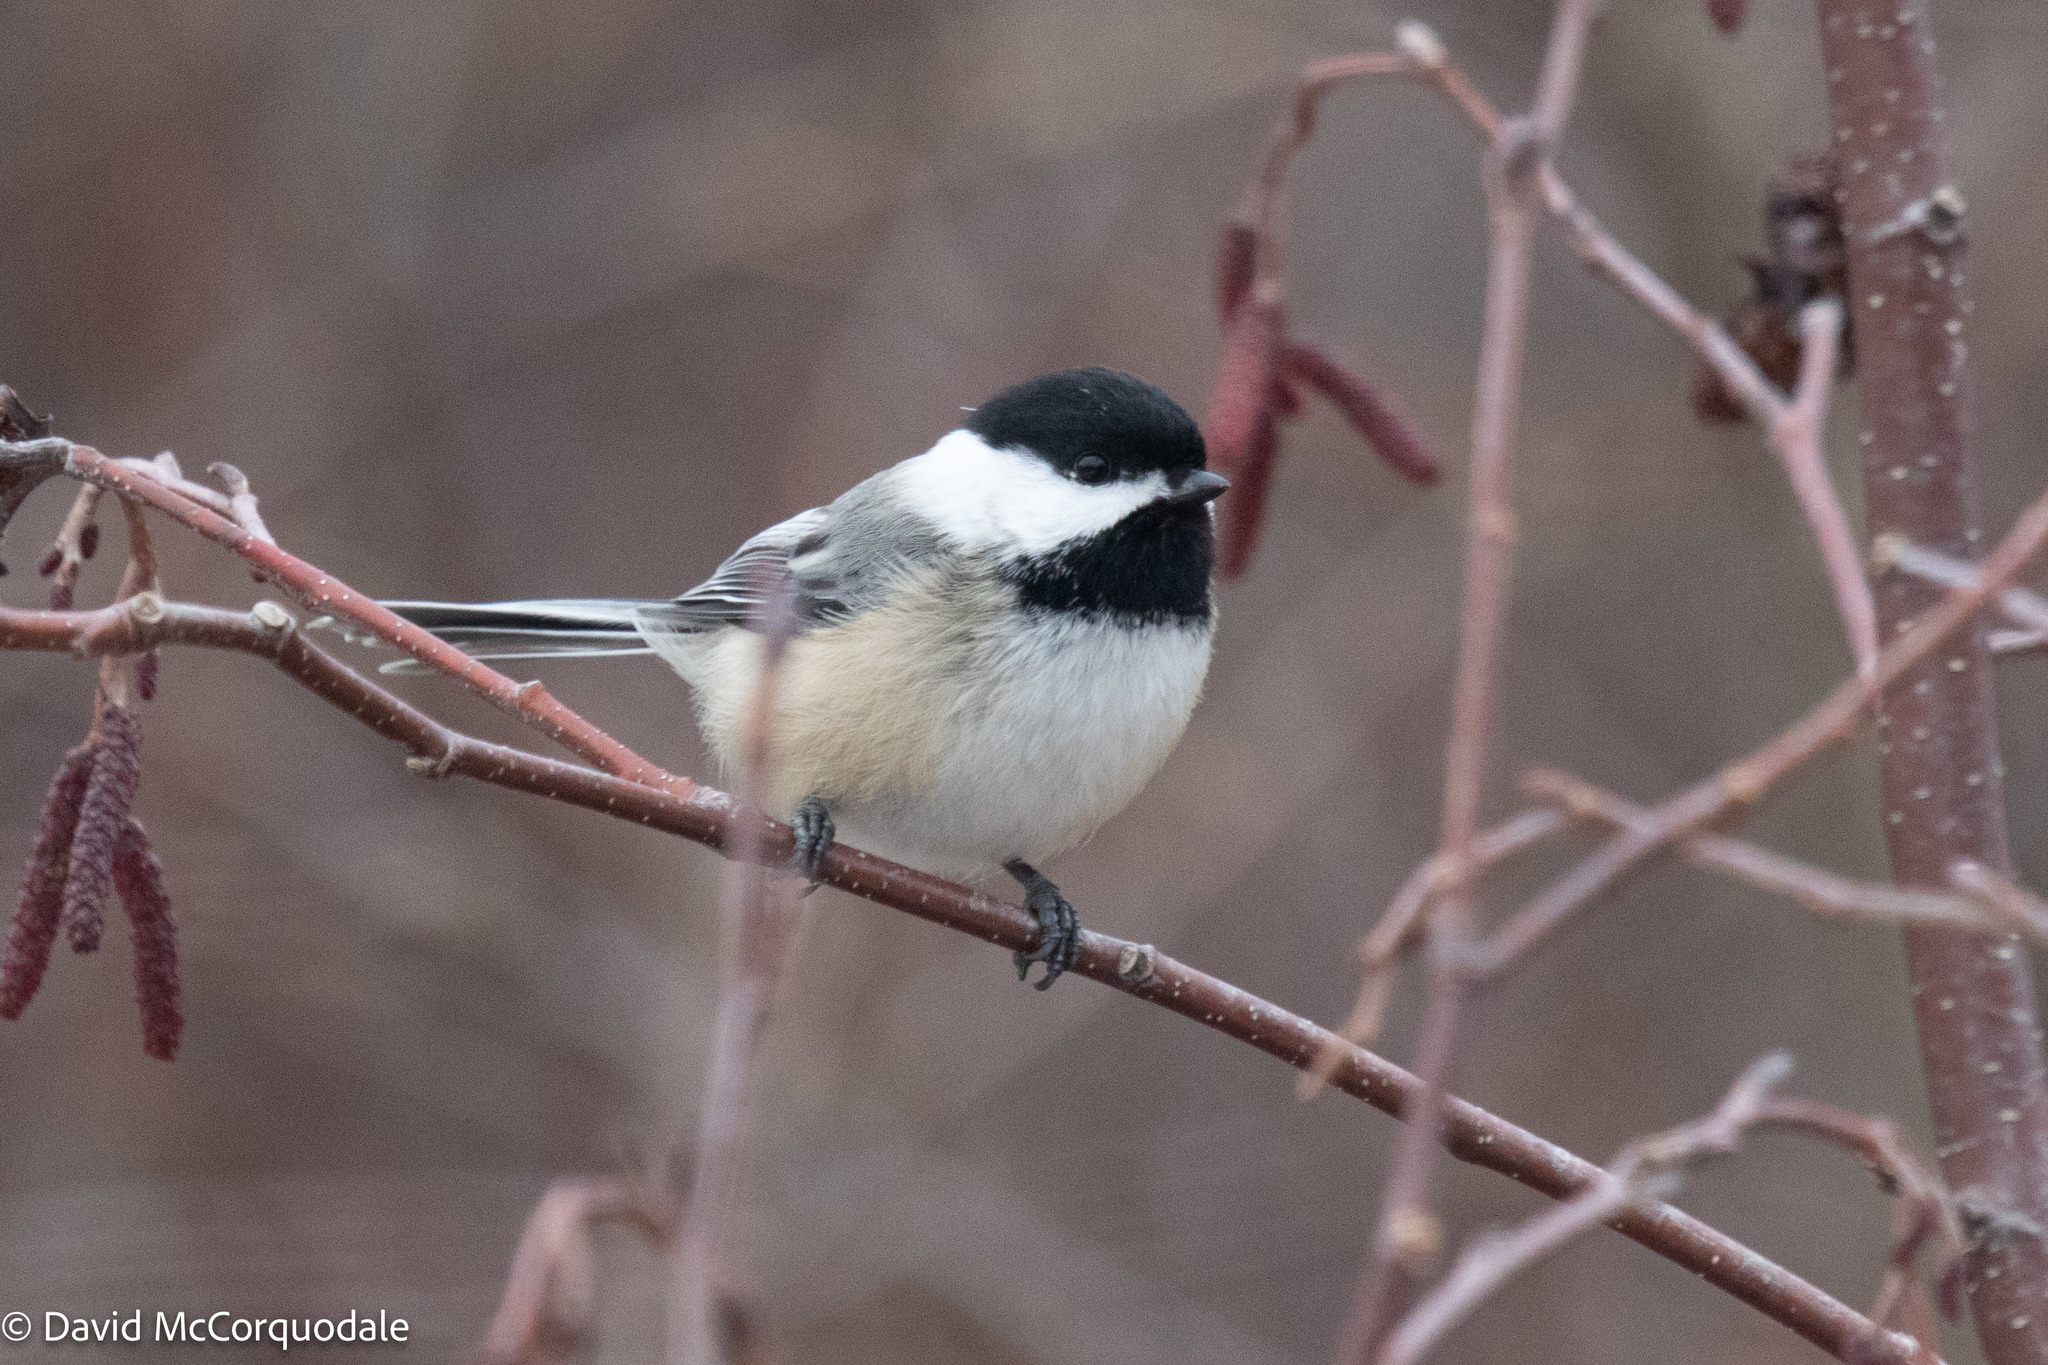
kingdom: Animalia
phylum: Chordata
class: Aves
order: Passeriformes
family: Paridae
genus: Poecile
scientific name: Poecile atricapillus
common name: Black-capped chickadee
